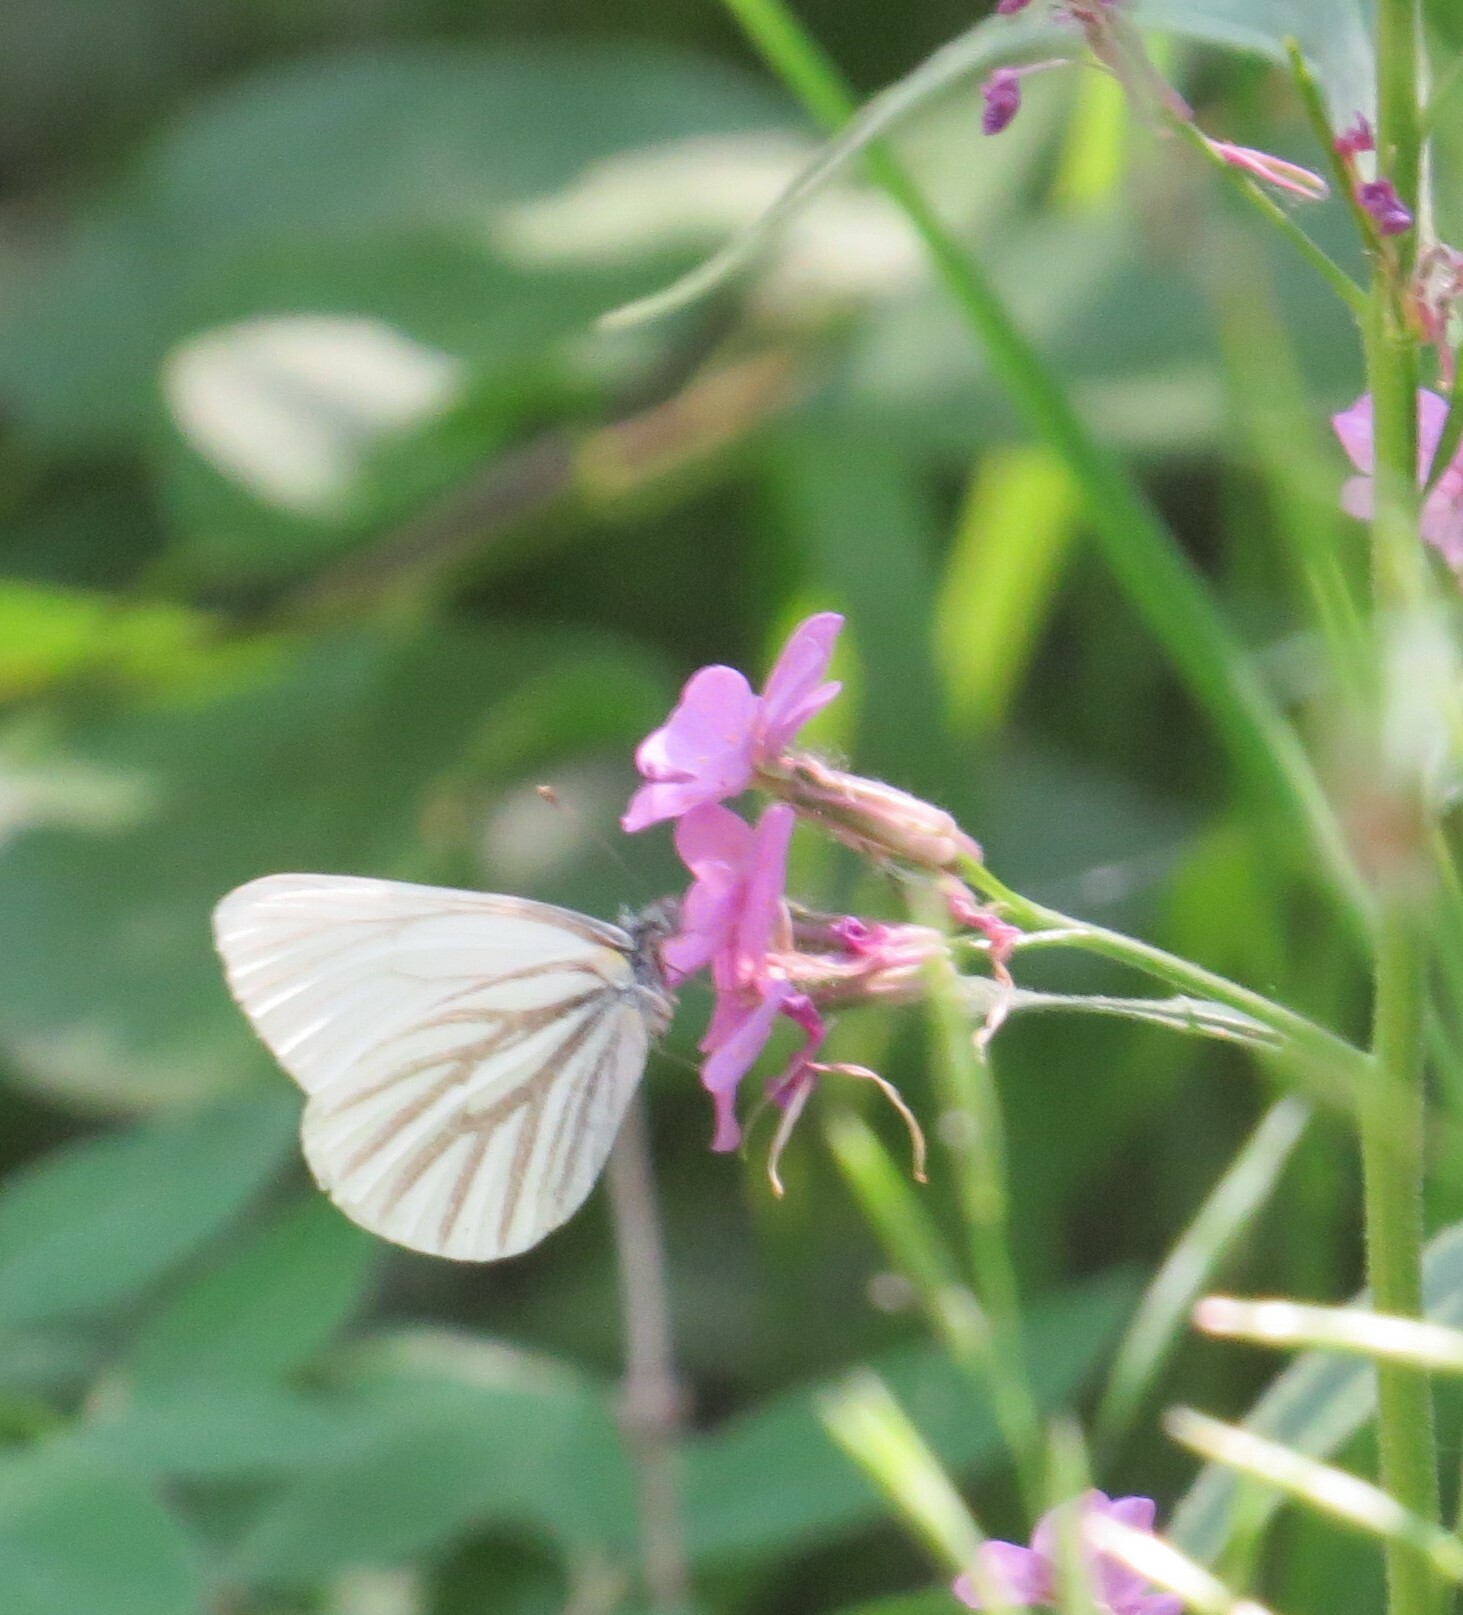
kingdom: Animalia
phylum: Arthropoda
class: Insecta
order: Lepidoptera
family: Pieridae
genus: Pieris
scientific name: Pieris oleracea
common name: Mustard white
